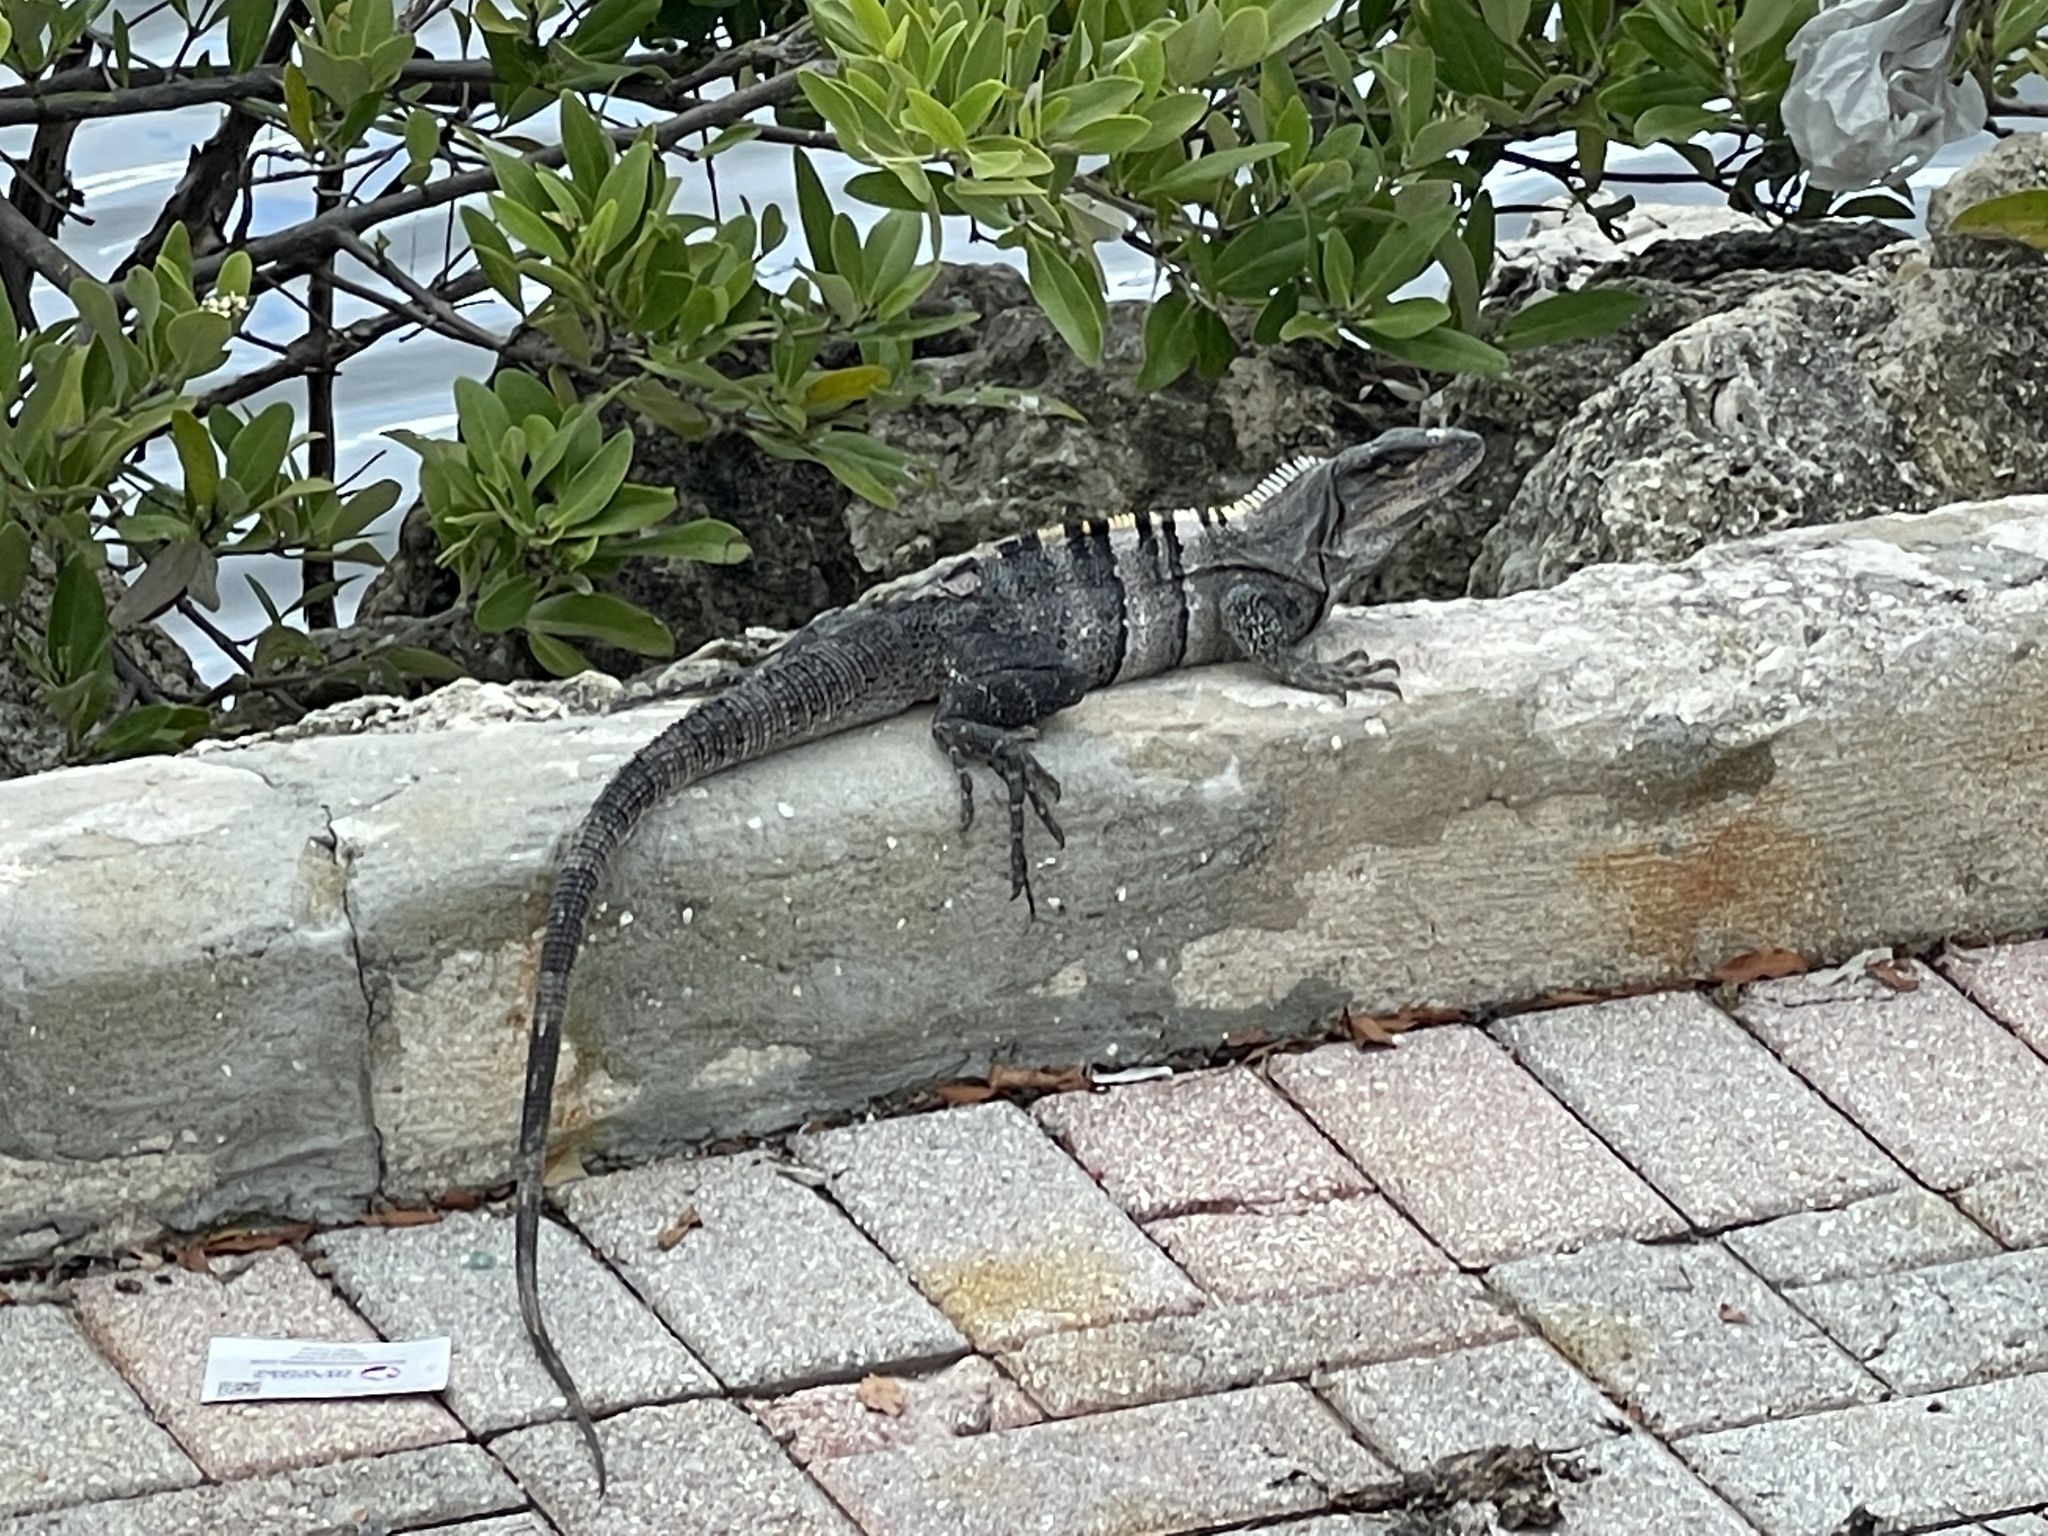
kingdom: Animalia
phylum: Chordata
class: Squamata
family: Iguanidae
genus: Ctenosaura
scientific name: Ctenosaura similis
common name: Black spiny-tailed iguana
